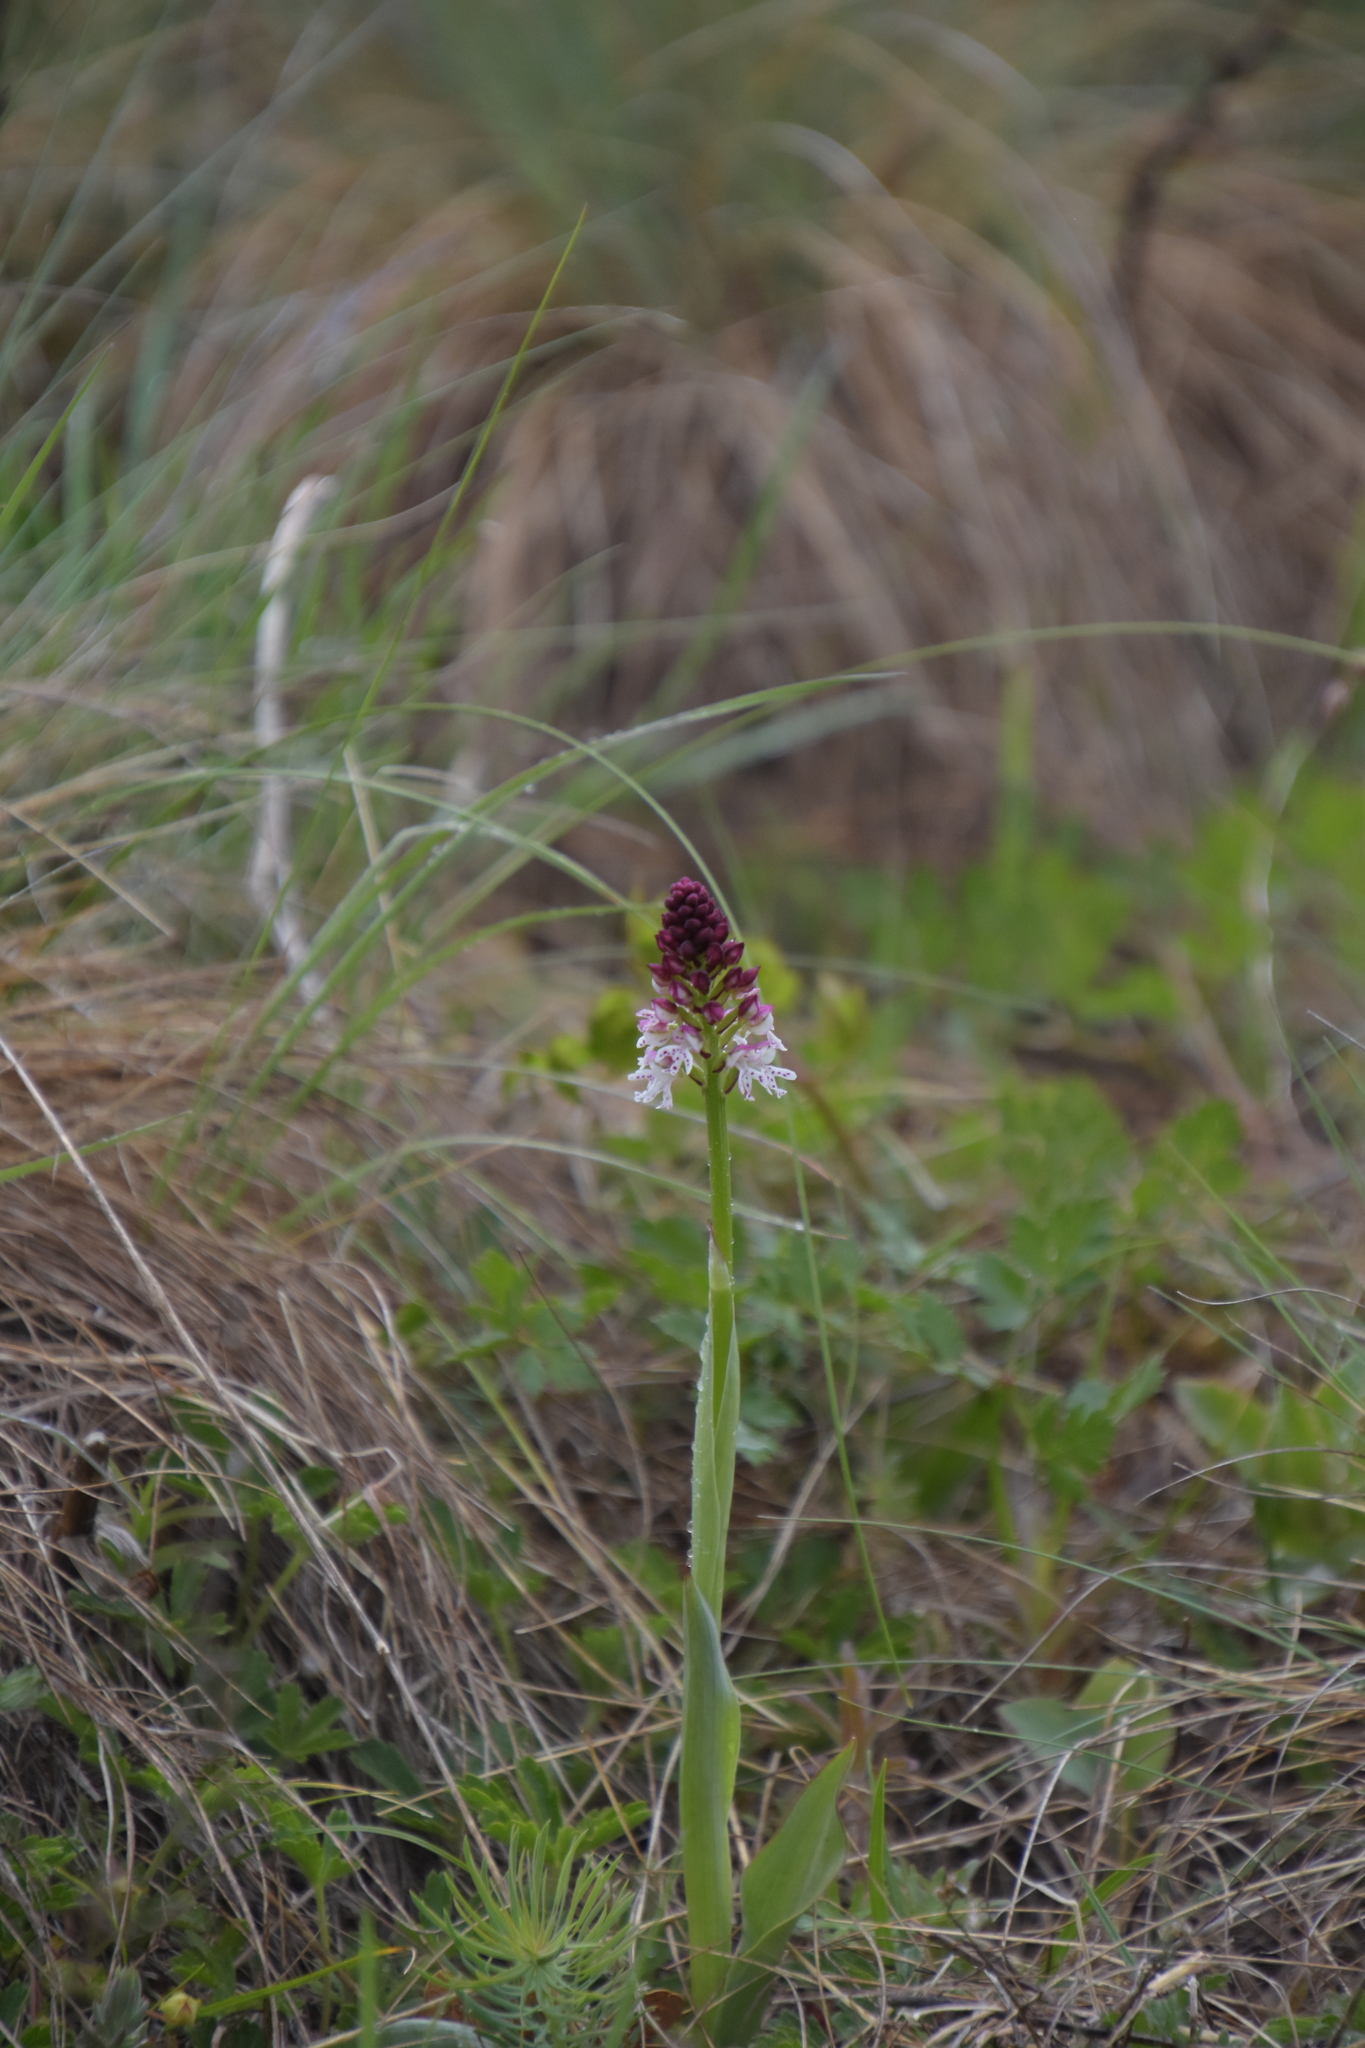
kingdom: Plantae
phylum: Tracheophyta
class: Liliopsida
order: Asparagales
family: Orchidaceae
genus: Neotinea
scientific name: Neotinea ustulata
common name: Burnt orchid
